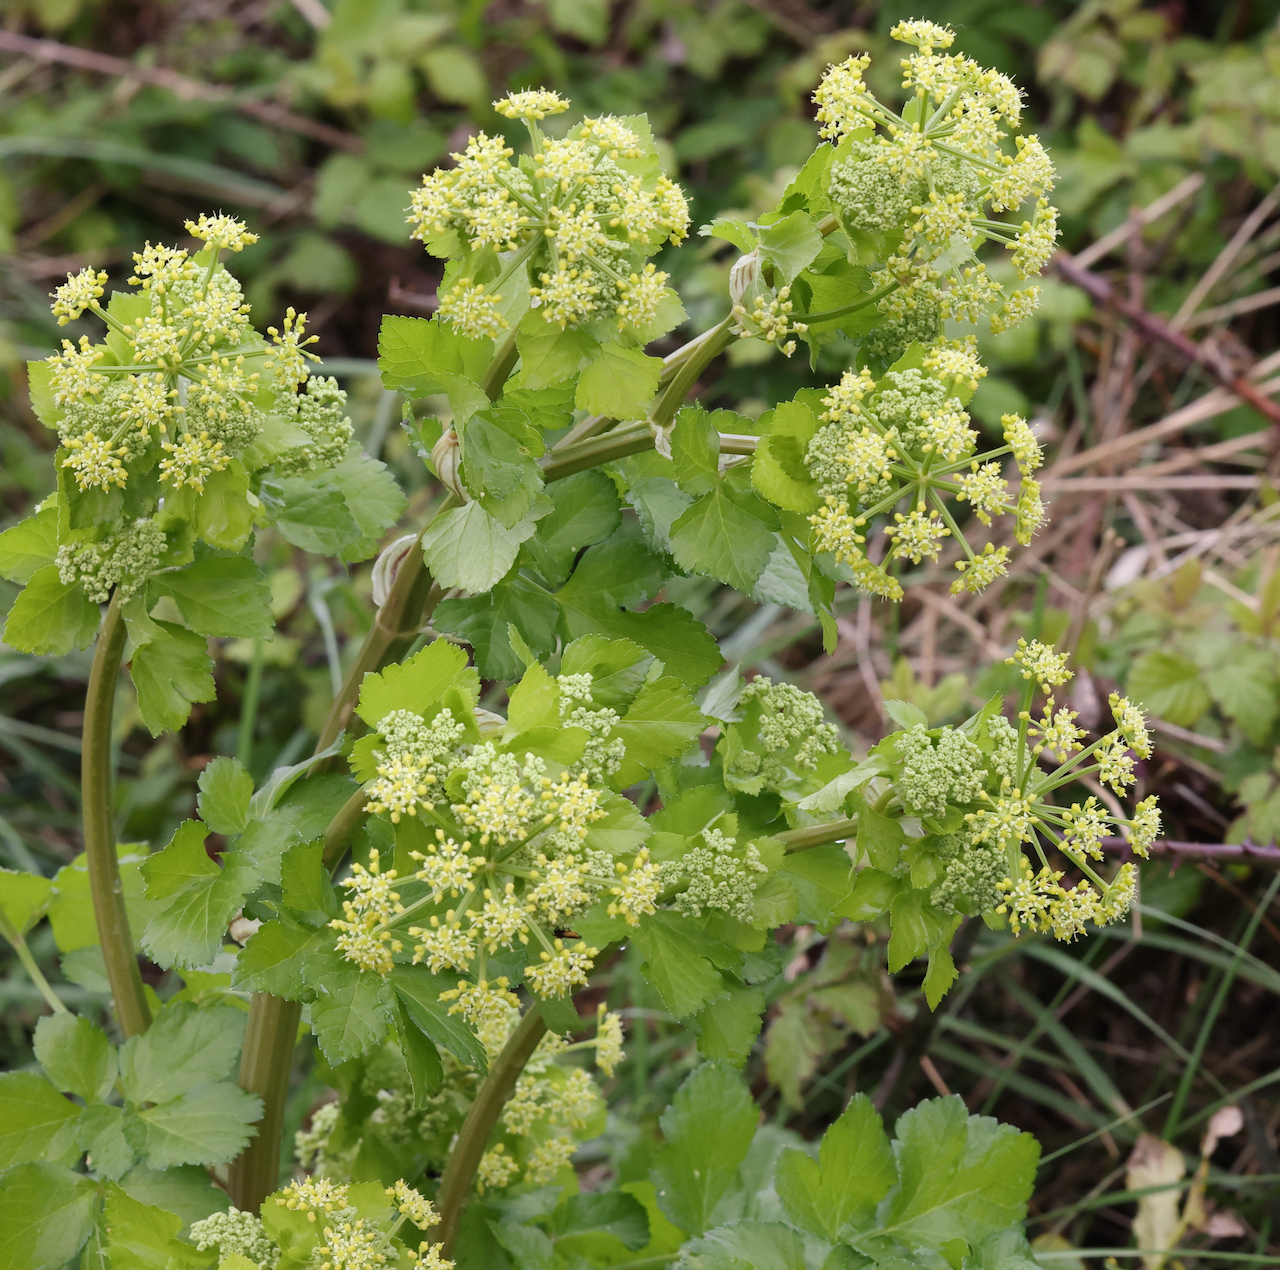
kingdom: Plantae
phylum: Tracheophyta
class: Magnoliopsida
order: Apiales
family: Apiaceae
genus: Smyrnium
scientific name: Smyrnium olusatrum
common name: Alexanders
